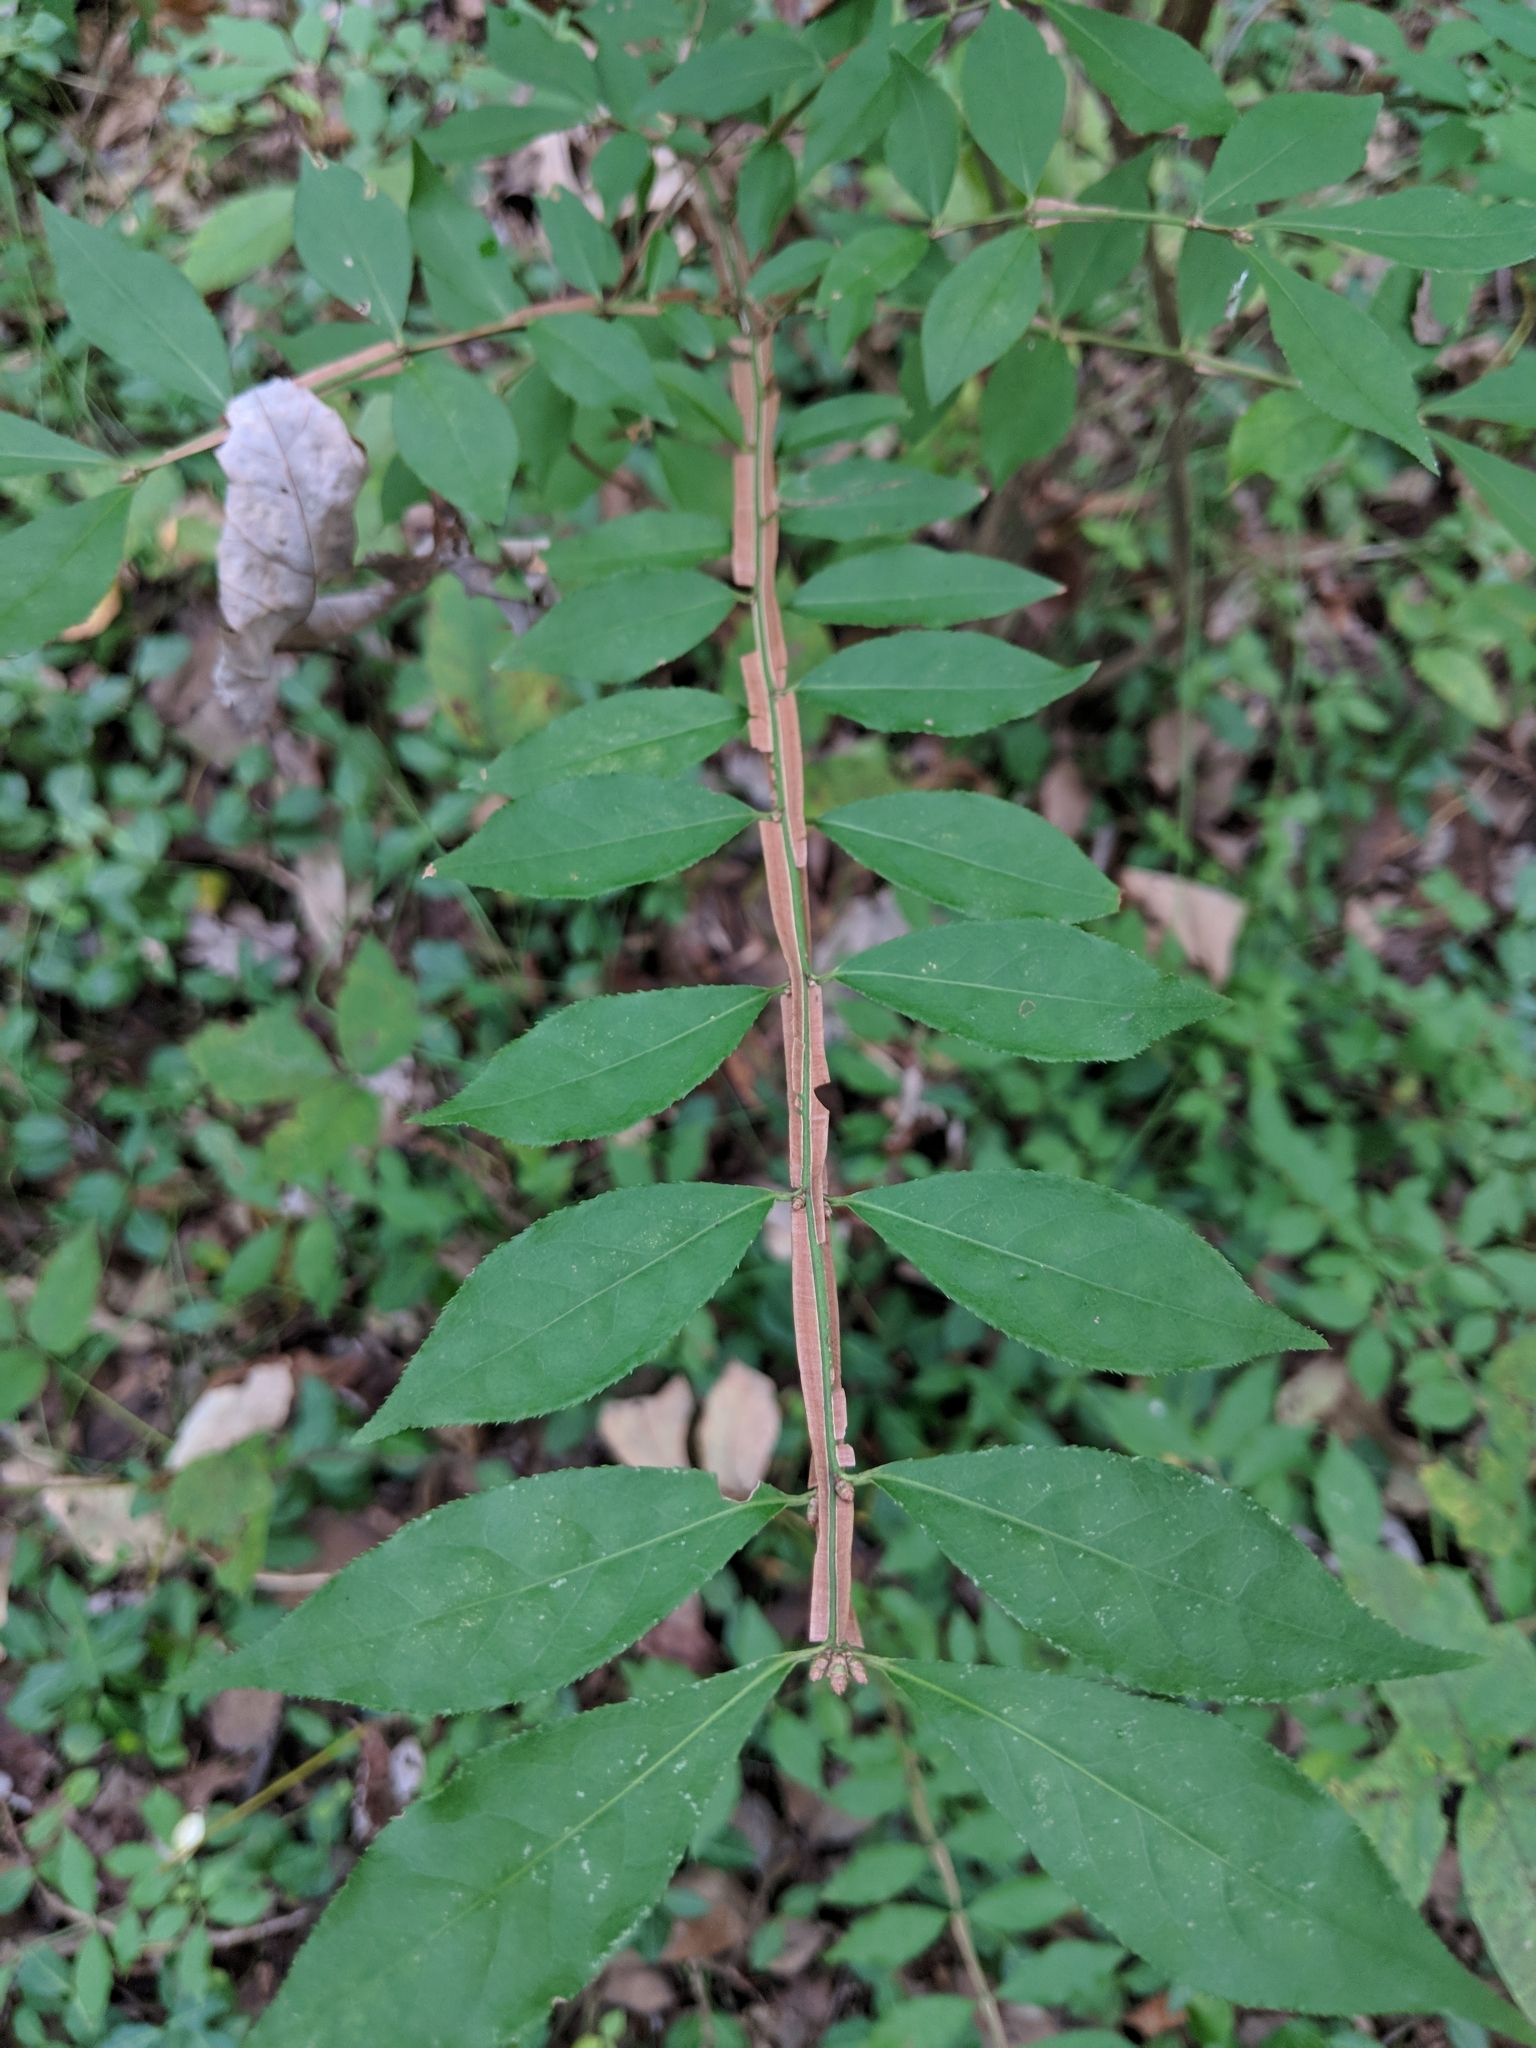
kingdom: Plantae
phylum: Tracheophyta
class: Magnoliopsida
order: Celastrales
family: Celastraceae
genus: Euonymus
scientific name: Euonymus alatus
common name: Winged euonymus
